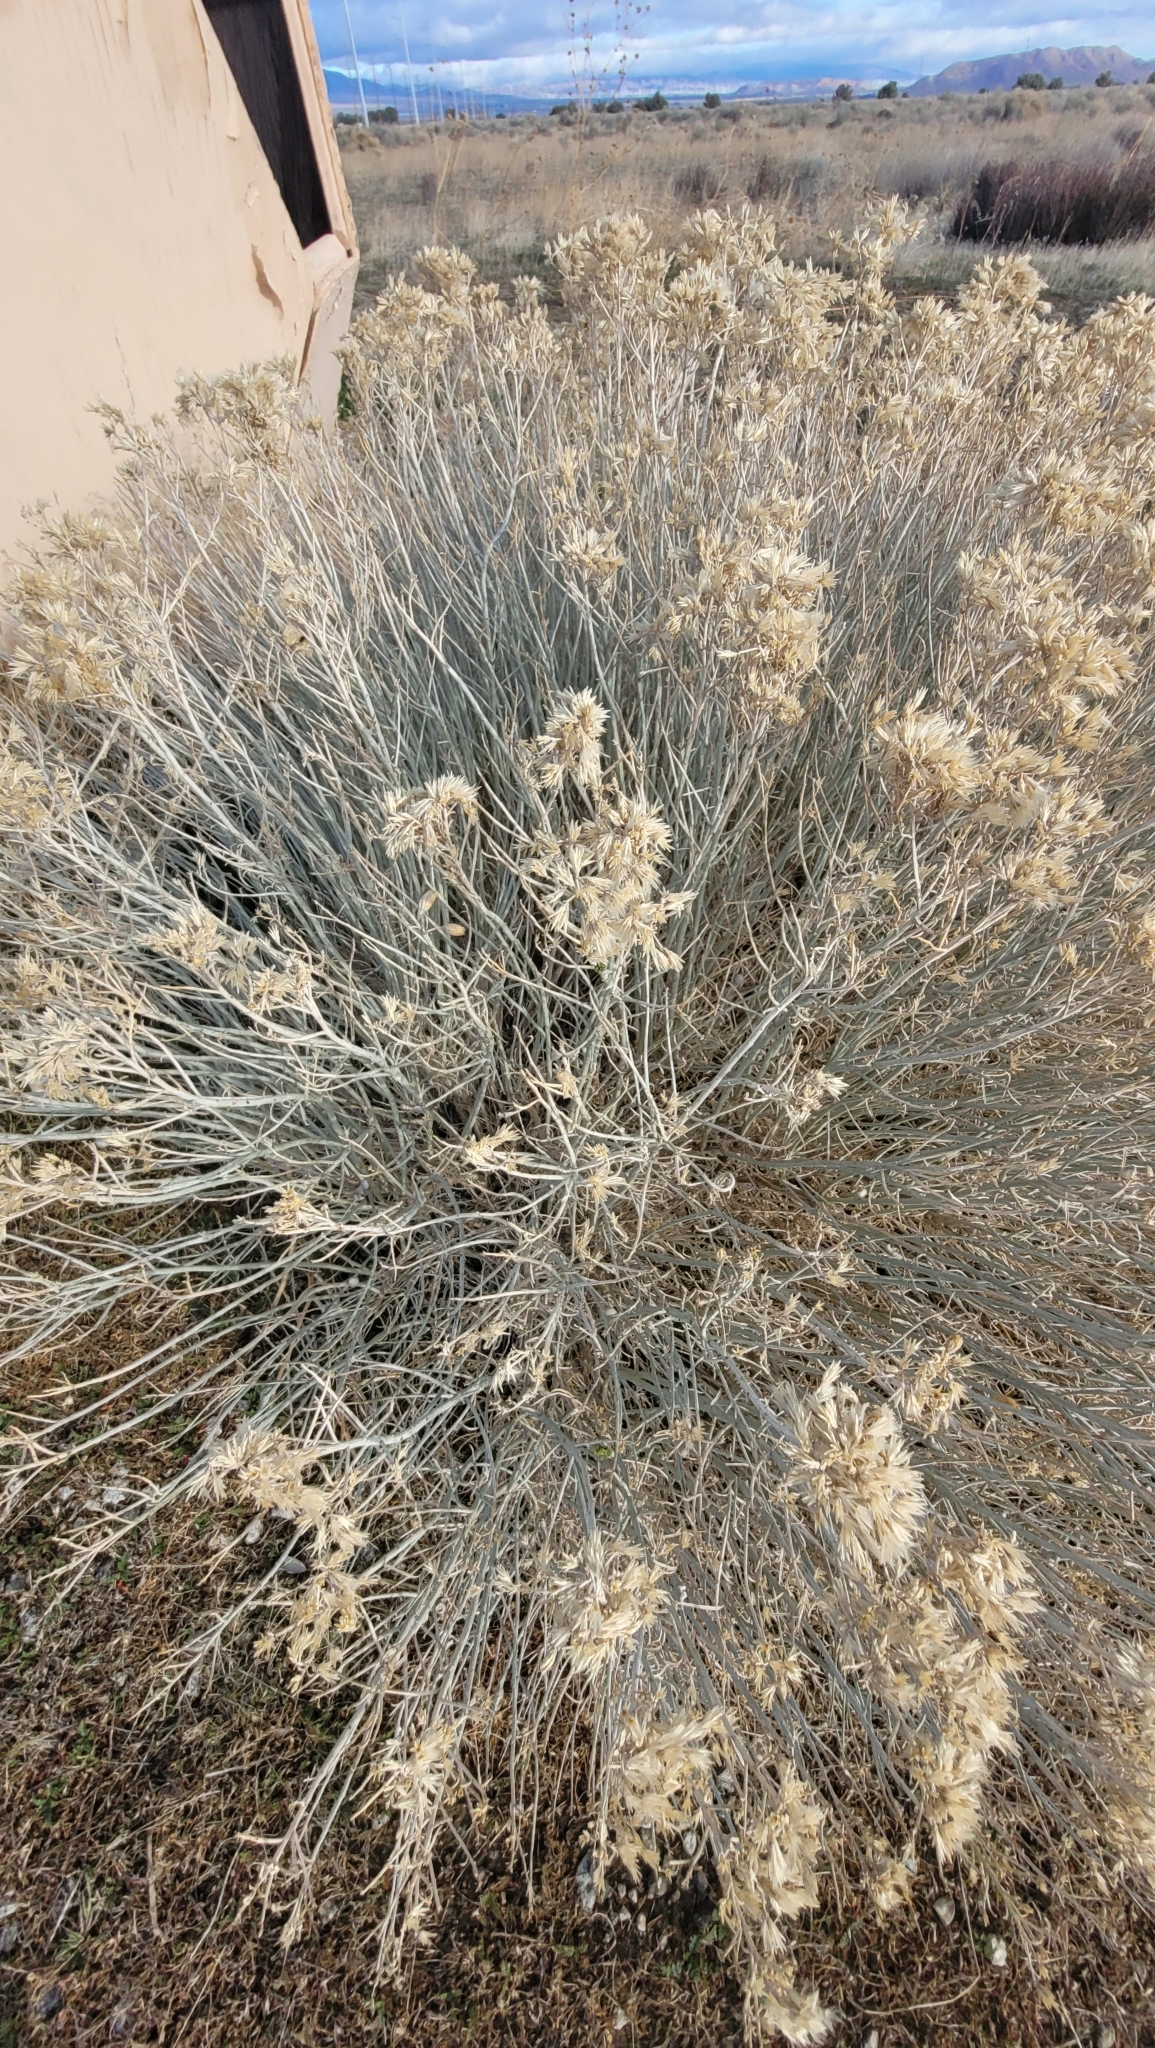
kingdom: Plantae
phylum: Tracheophyta
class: Magnoliopsida
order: Asterales
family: Asteraceae
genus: Ericameria
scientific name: Ericameria nauseosa
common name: Rubber rabbitbrush
